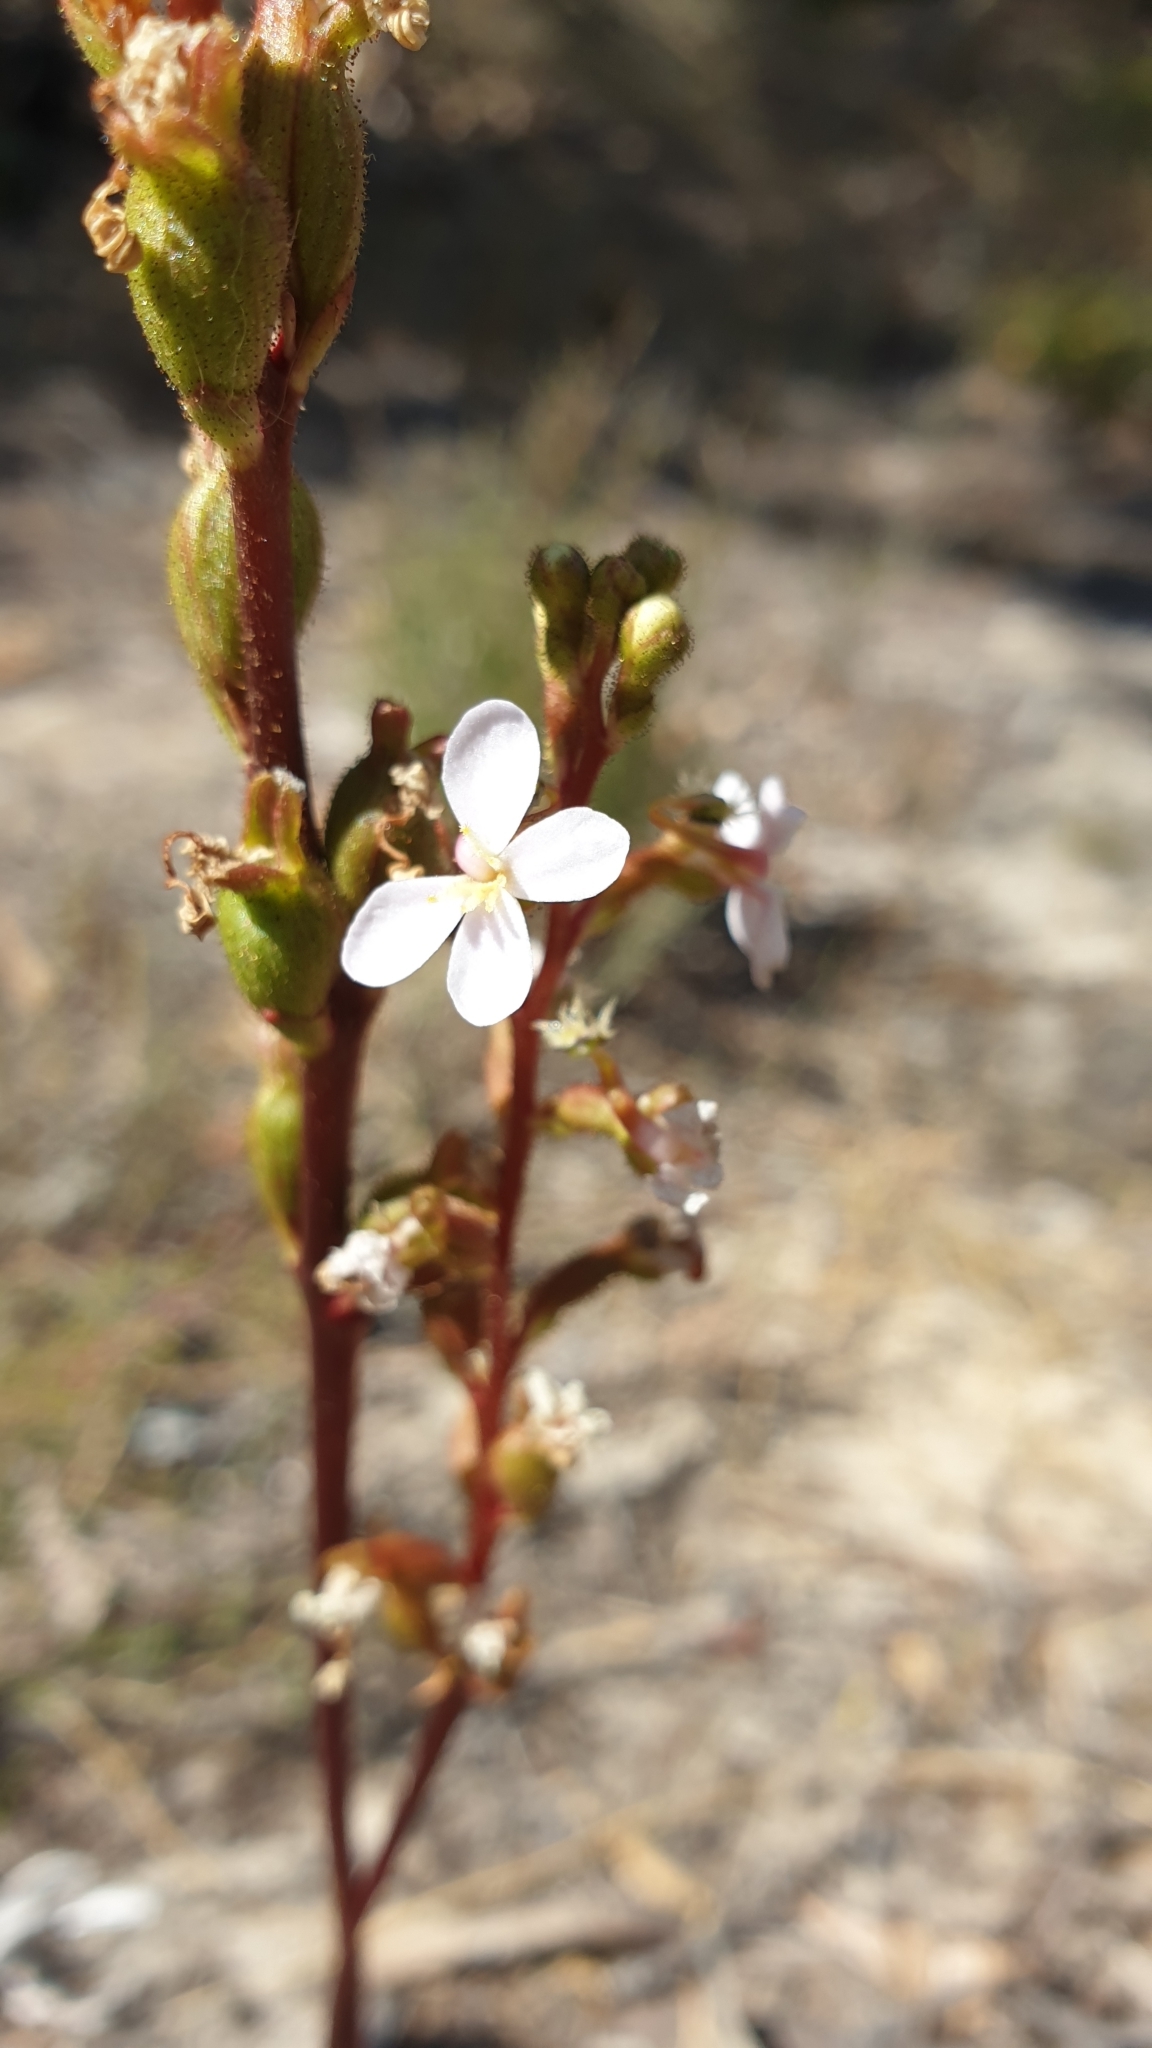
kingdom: Plantae
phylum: Tracheophyta
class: Magnoliopsida
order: Asterales
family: Stylidiaceae
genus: Stylidium
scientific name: Stylidium graminifolium
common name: Grass triggerplant
